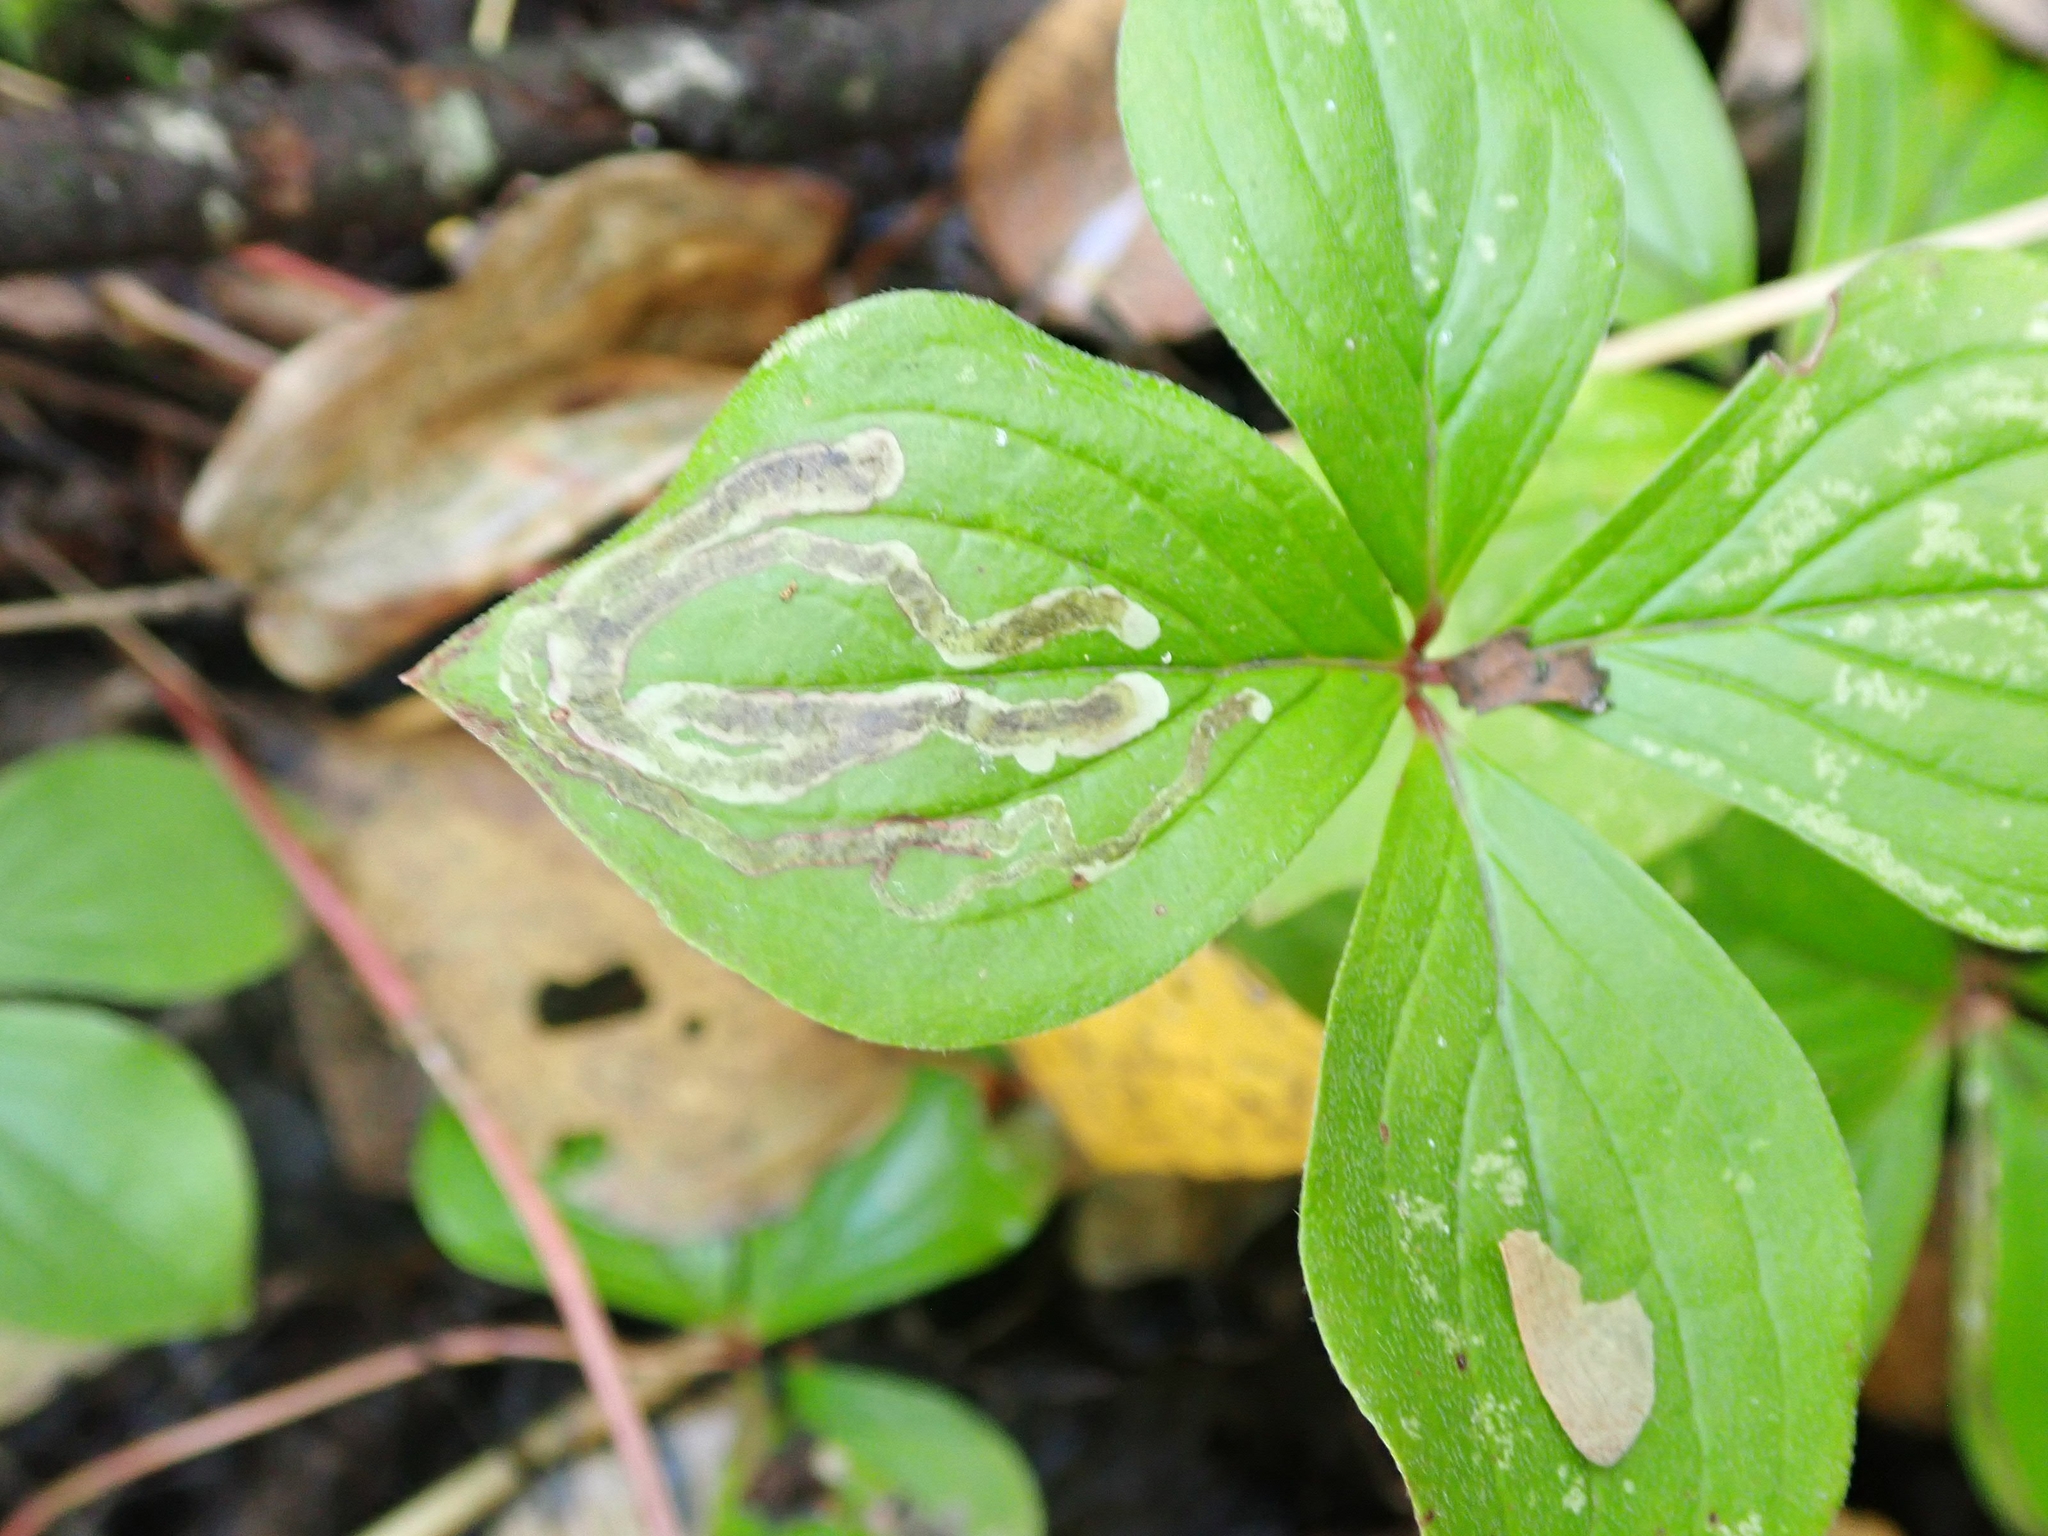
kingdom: Animalia
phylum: Arthropoda
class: Insecta
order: Diptera
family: Agromyzidae
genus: Phytomyza
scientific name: Phytomyza agromyzina
